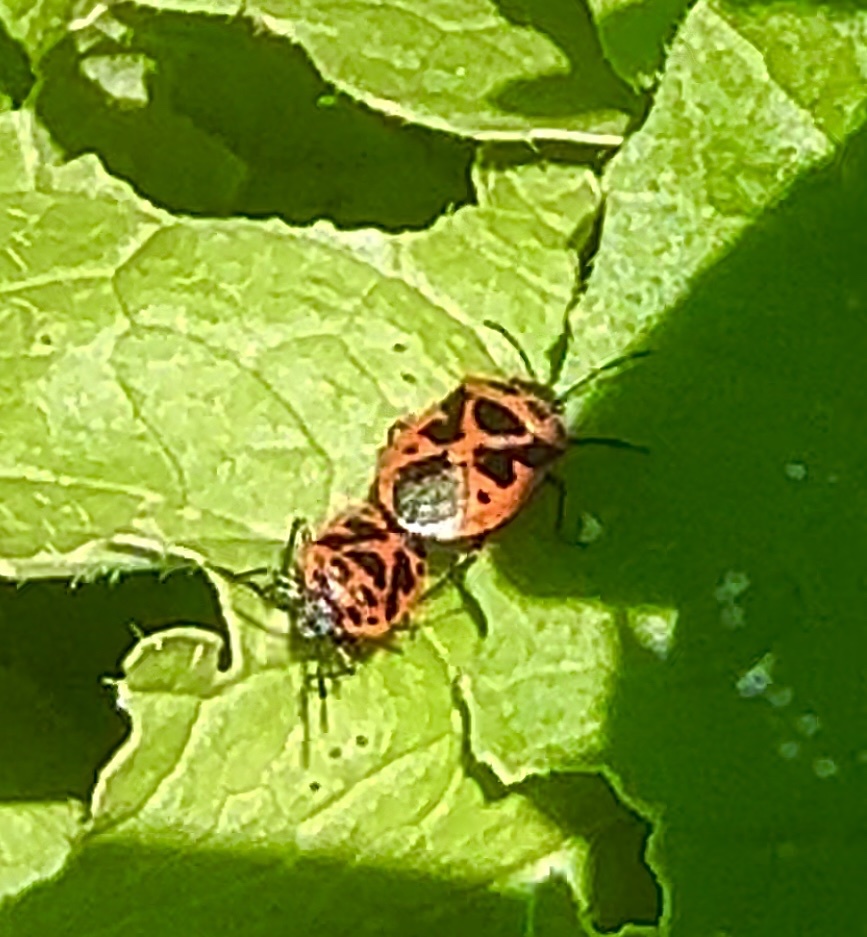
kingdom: Animalia
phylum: Arthropoda
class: Insecta
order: Hemiptera
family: Pentatomidae
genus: Eurydema
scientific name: Eurydema dominulus
